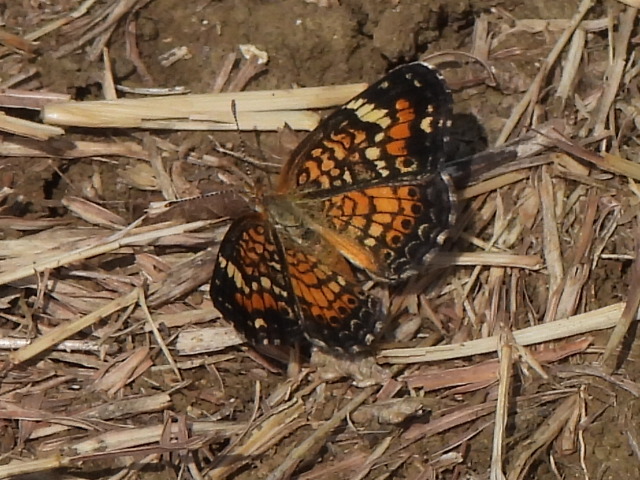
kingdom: Animalia
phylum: Arthropoda
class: Insecta
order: Lepidoptera
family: Nymphalidae
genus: Phyciodes
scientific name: Phyciodes phaon
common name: Phaon crescent
